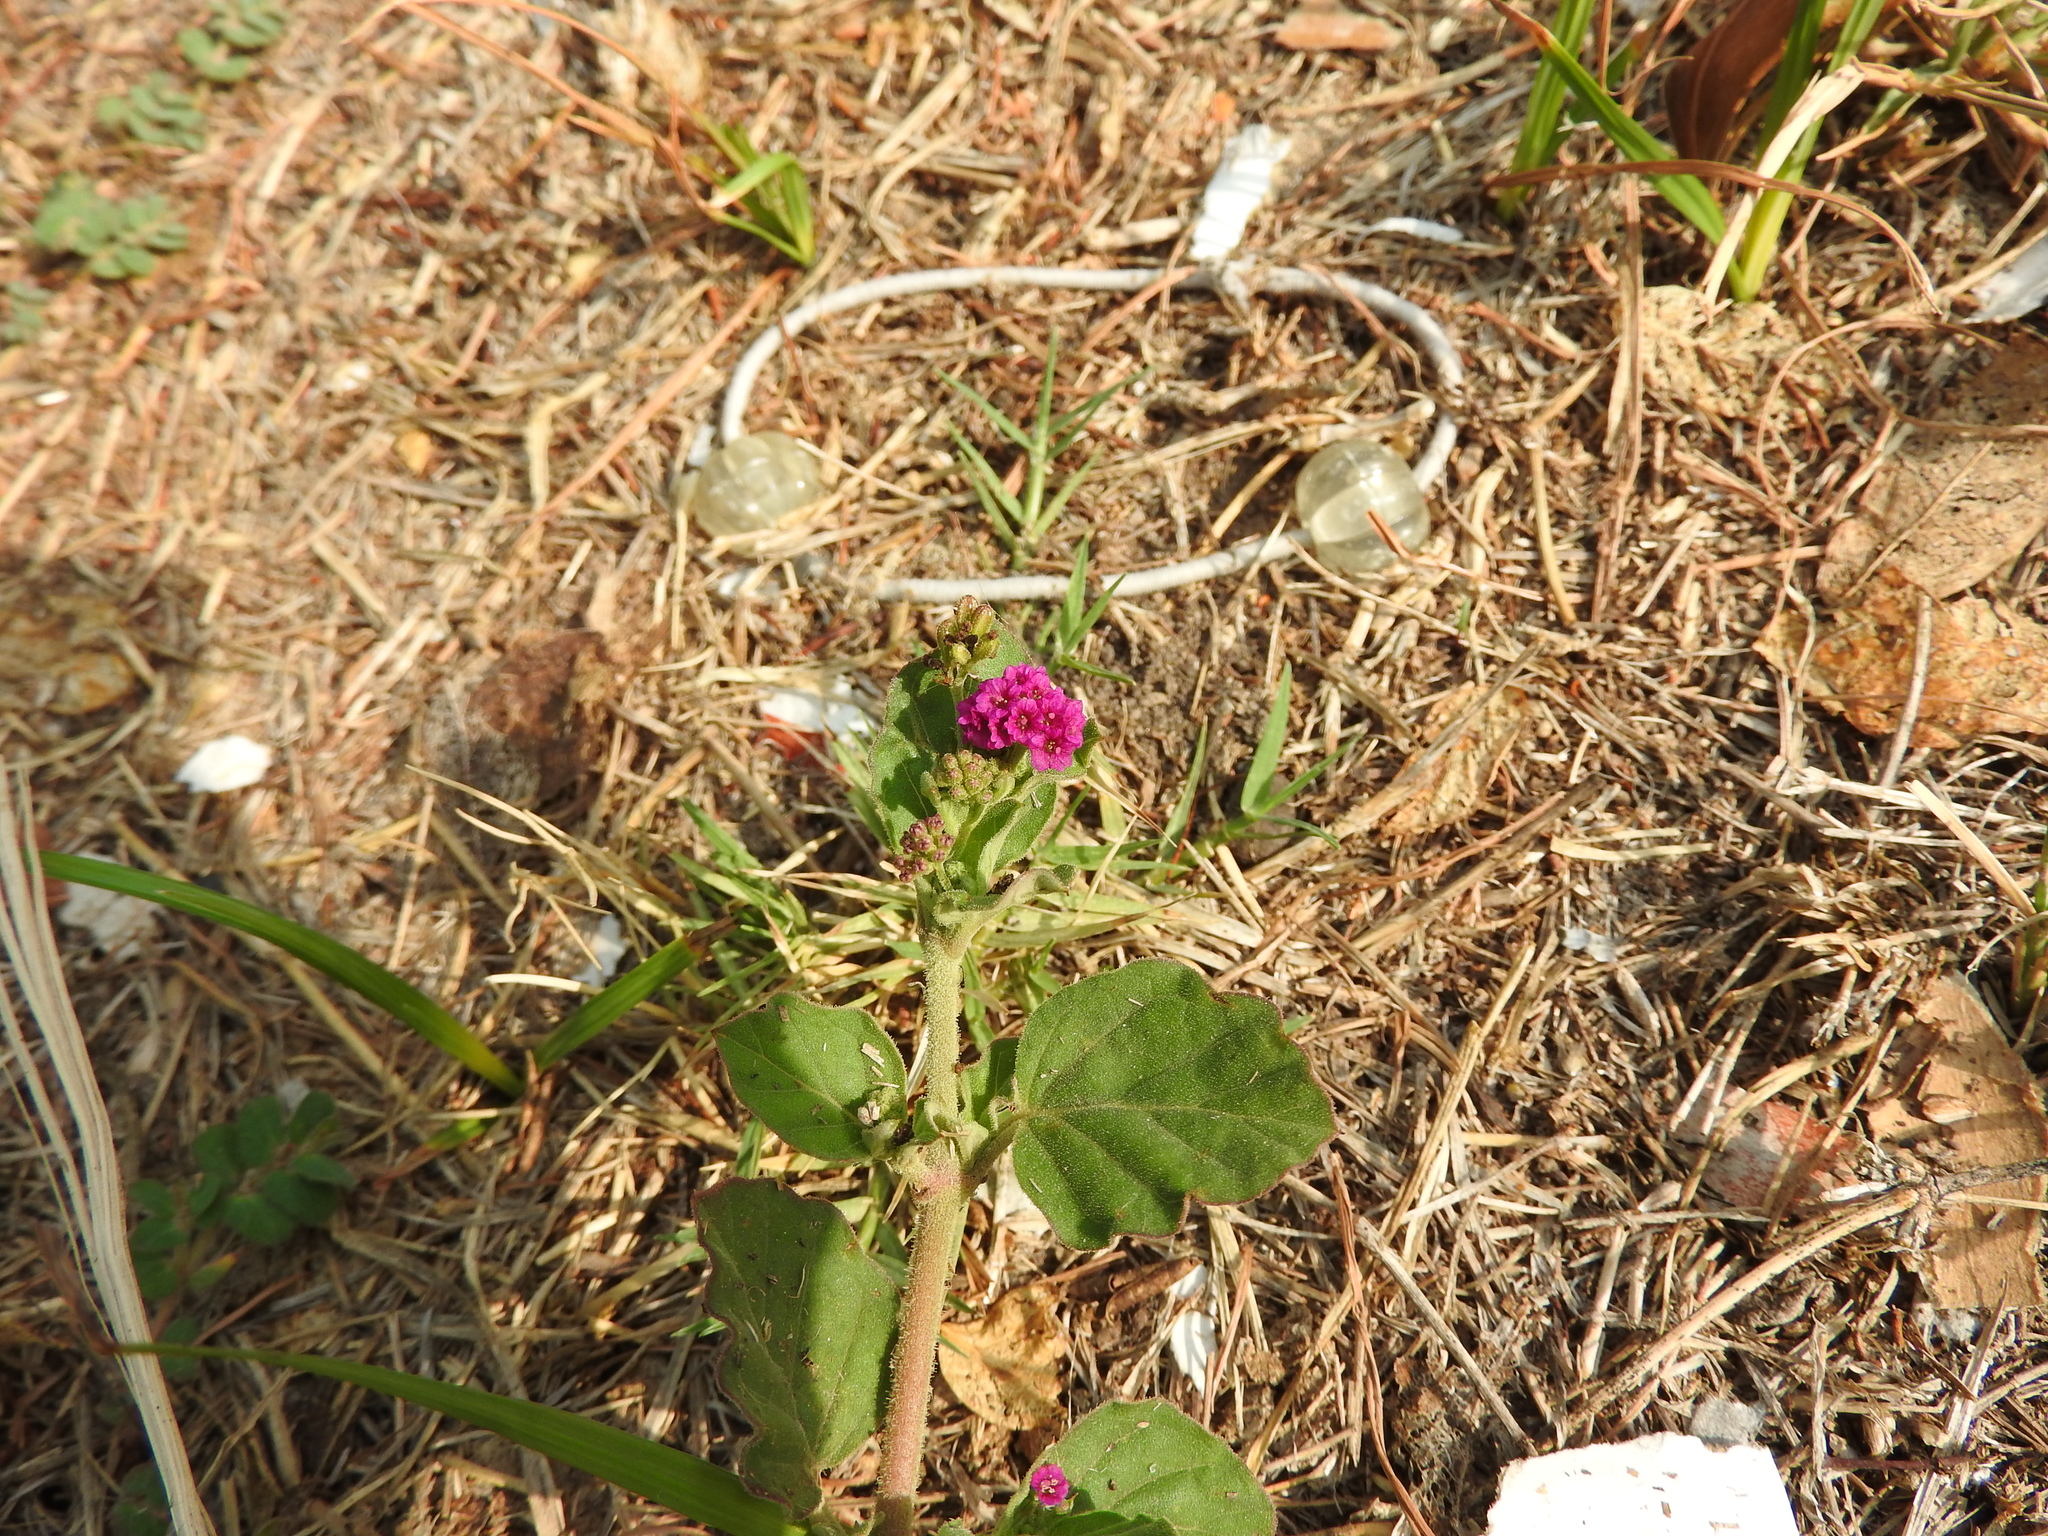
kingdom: Plantae
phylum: Tracheophyta
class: Magnoliopsida
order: Caryophyllales
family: Nyctaginaceae
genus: Boerhavia
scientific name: Boerhavia coccinea
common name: Scarlet spiderling
